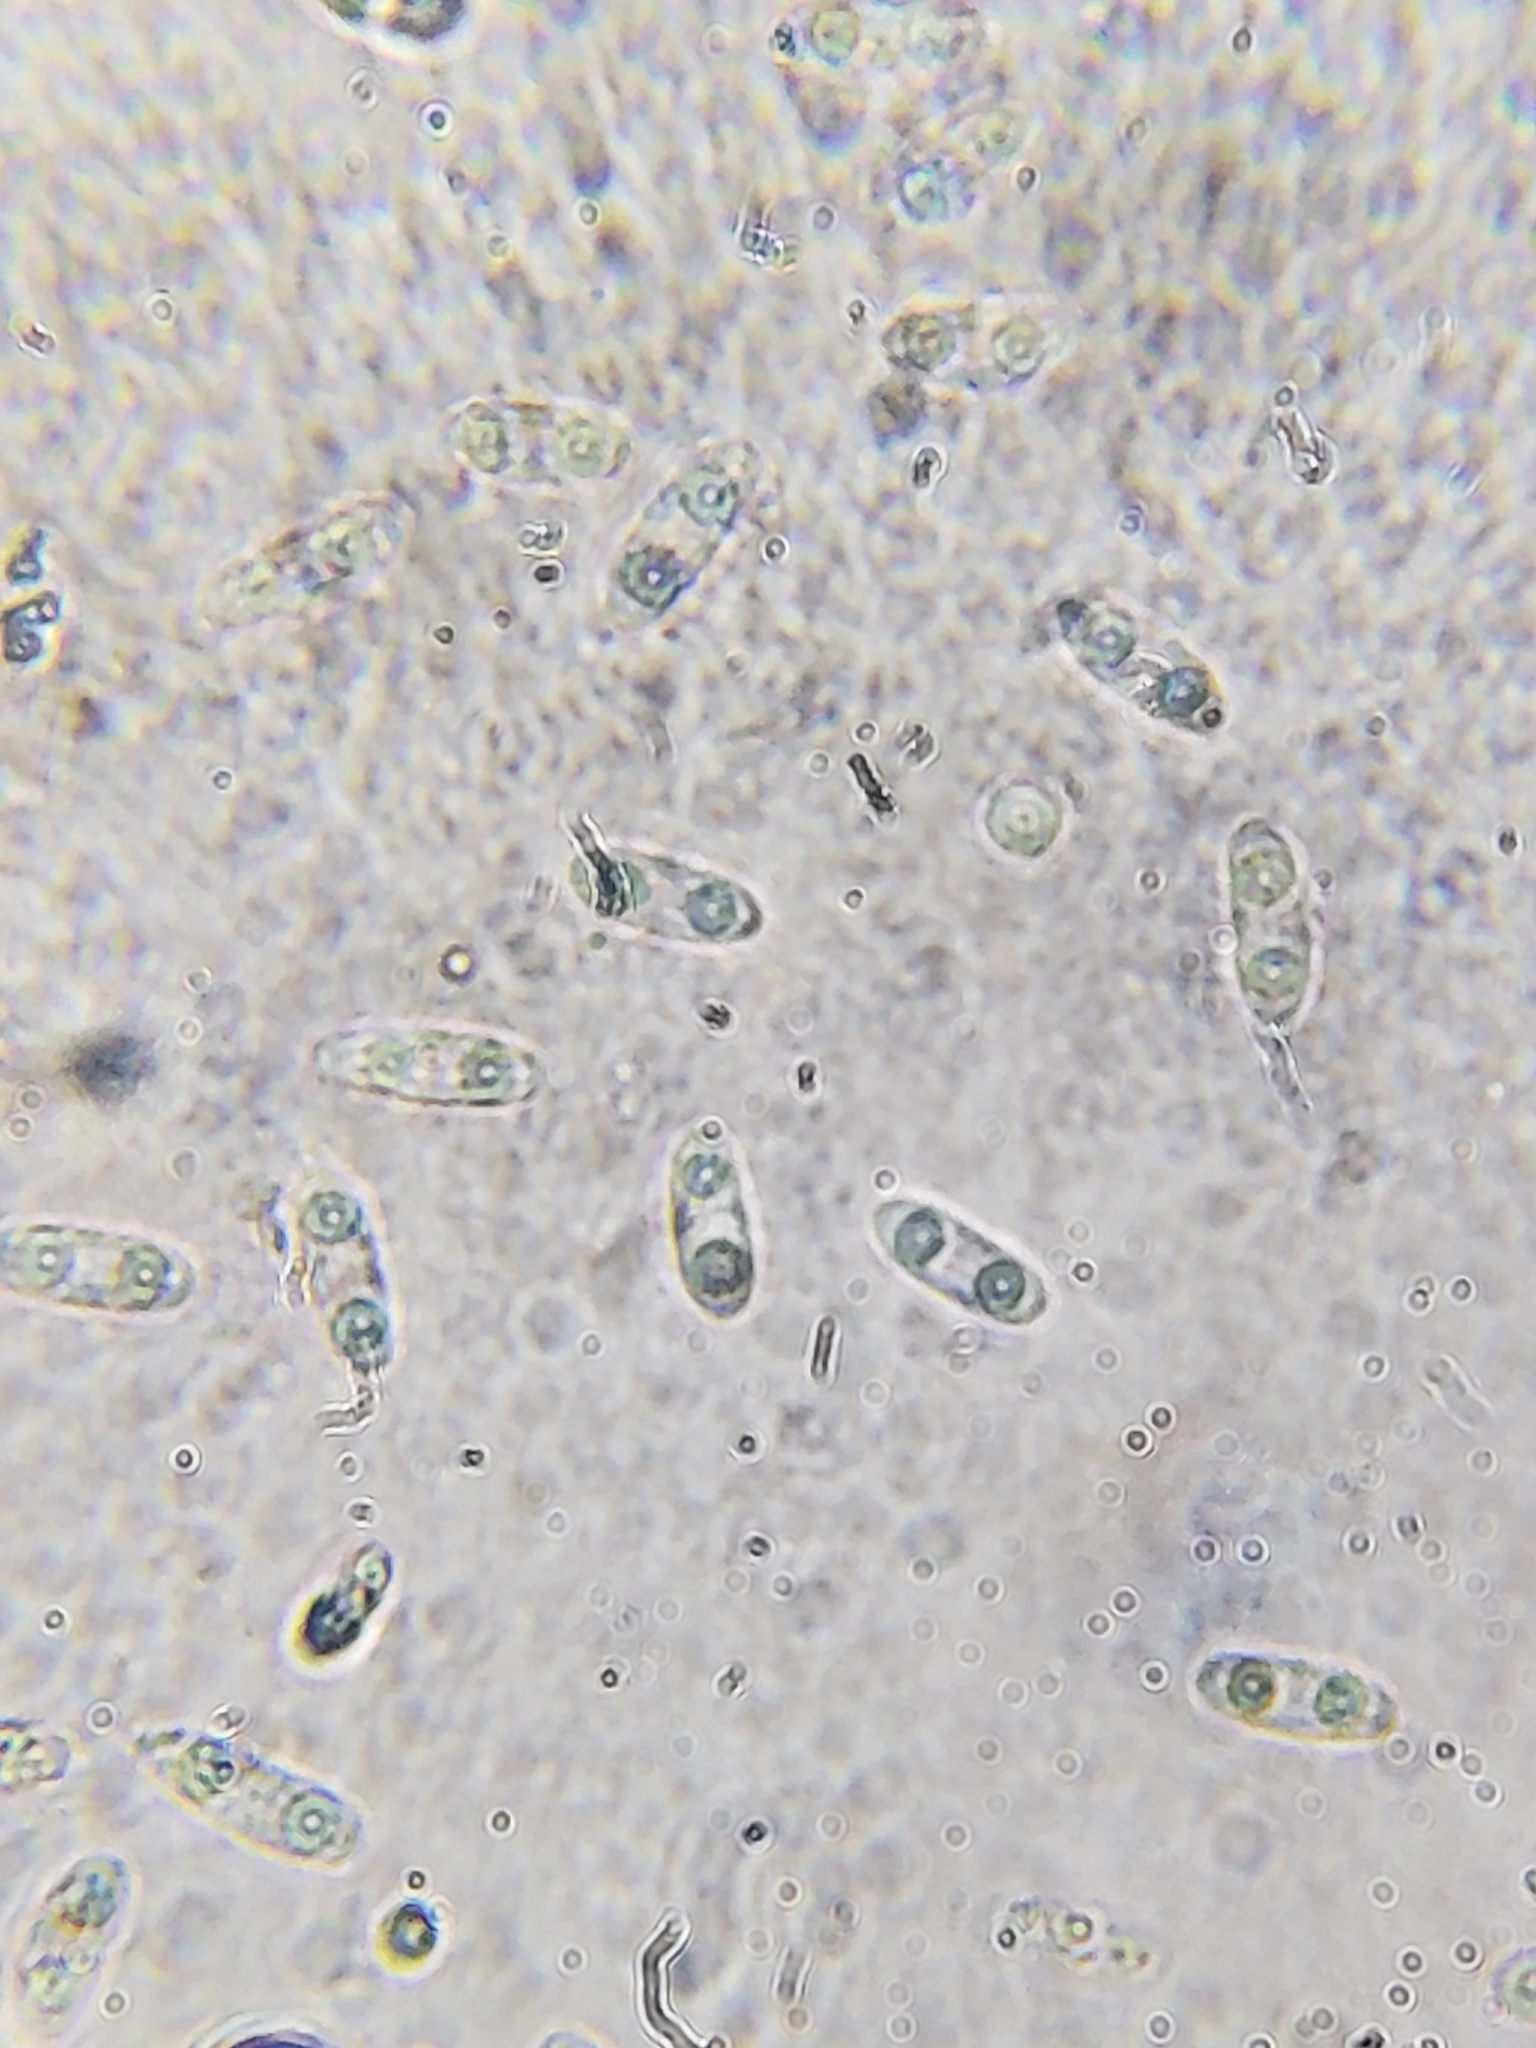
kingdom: Fungi
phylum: Ascomycota
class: Leotiomycetes
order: Helotiales
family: Cenangiaceae
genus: Chlorencoelia
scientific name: Chlorencoelia torta
